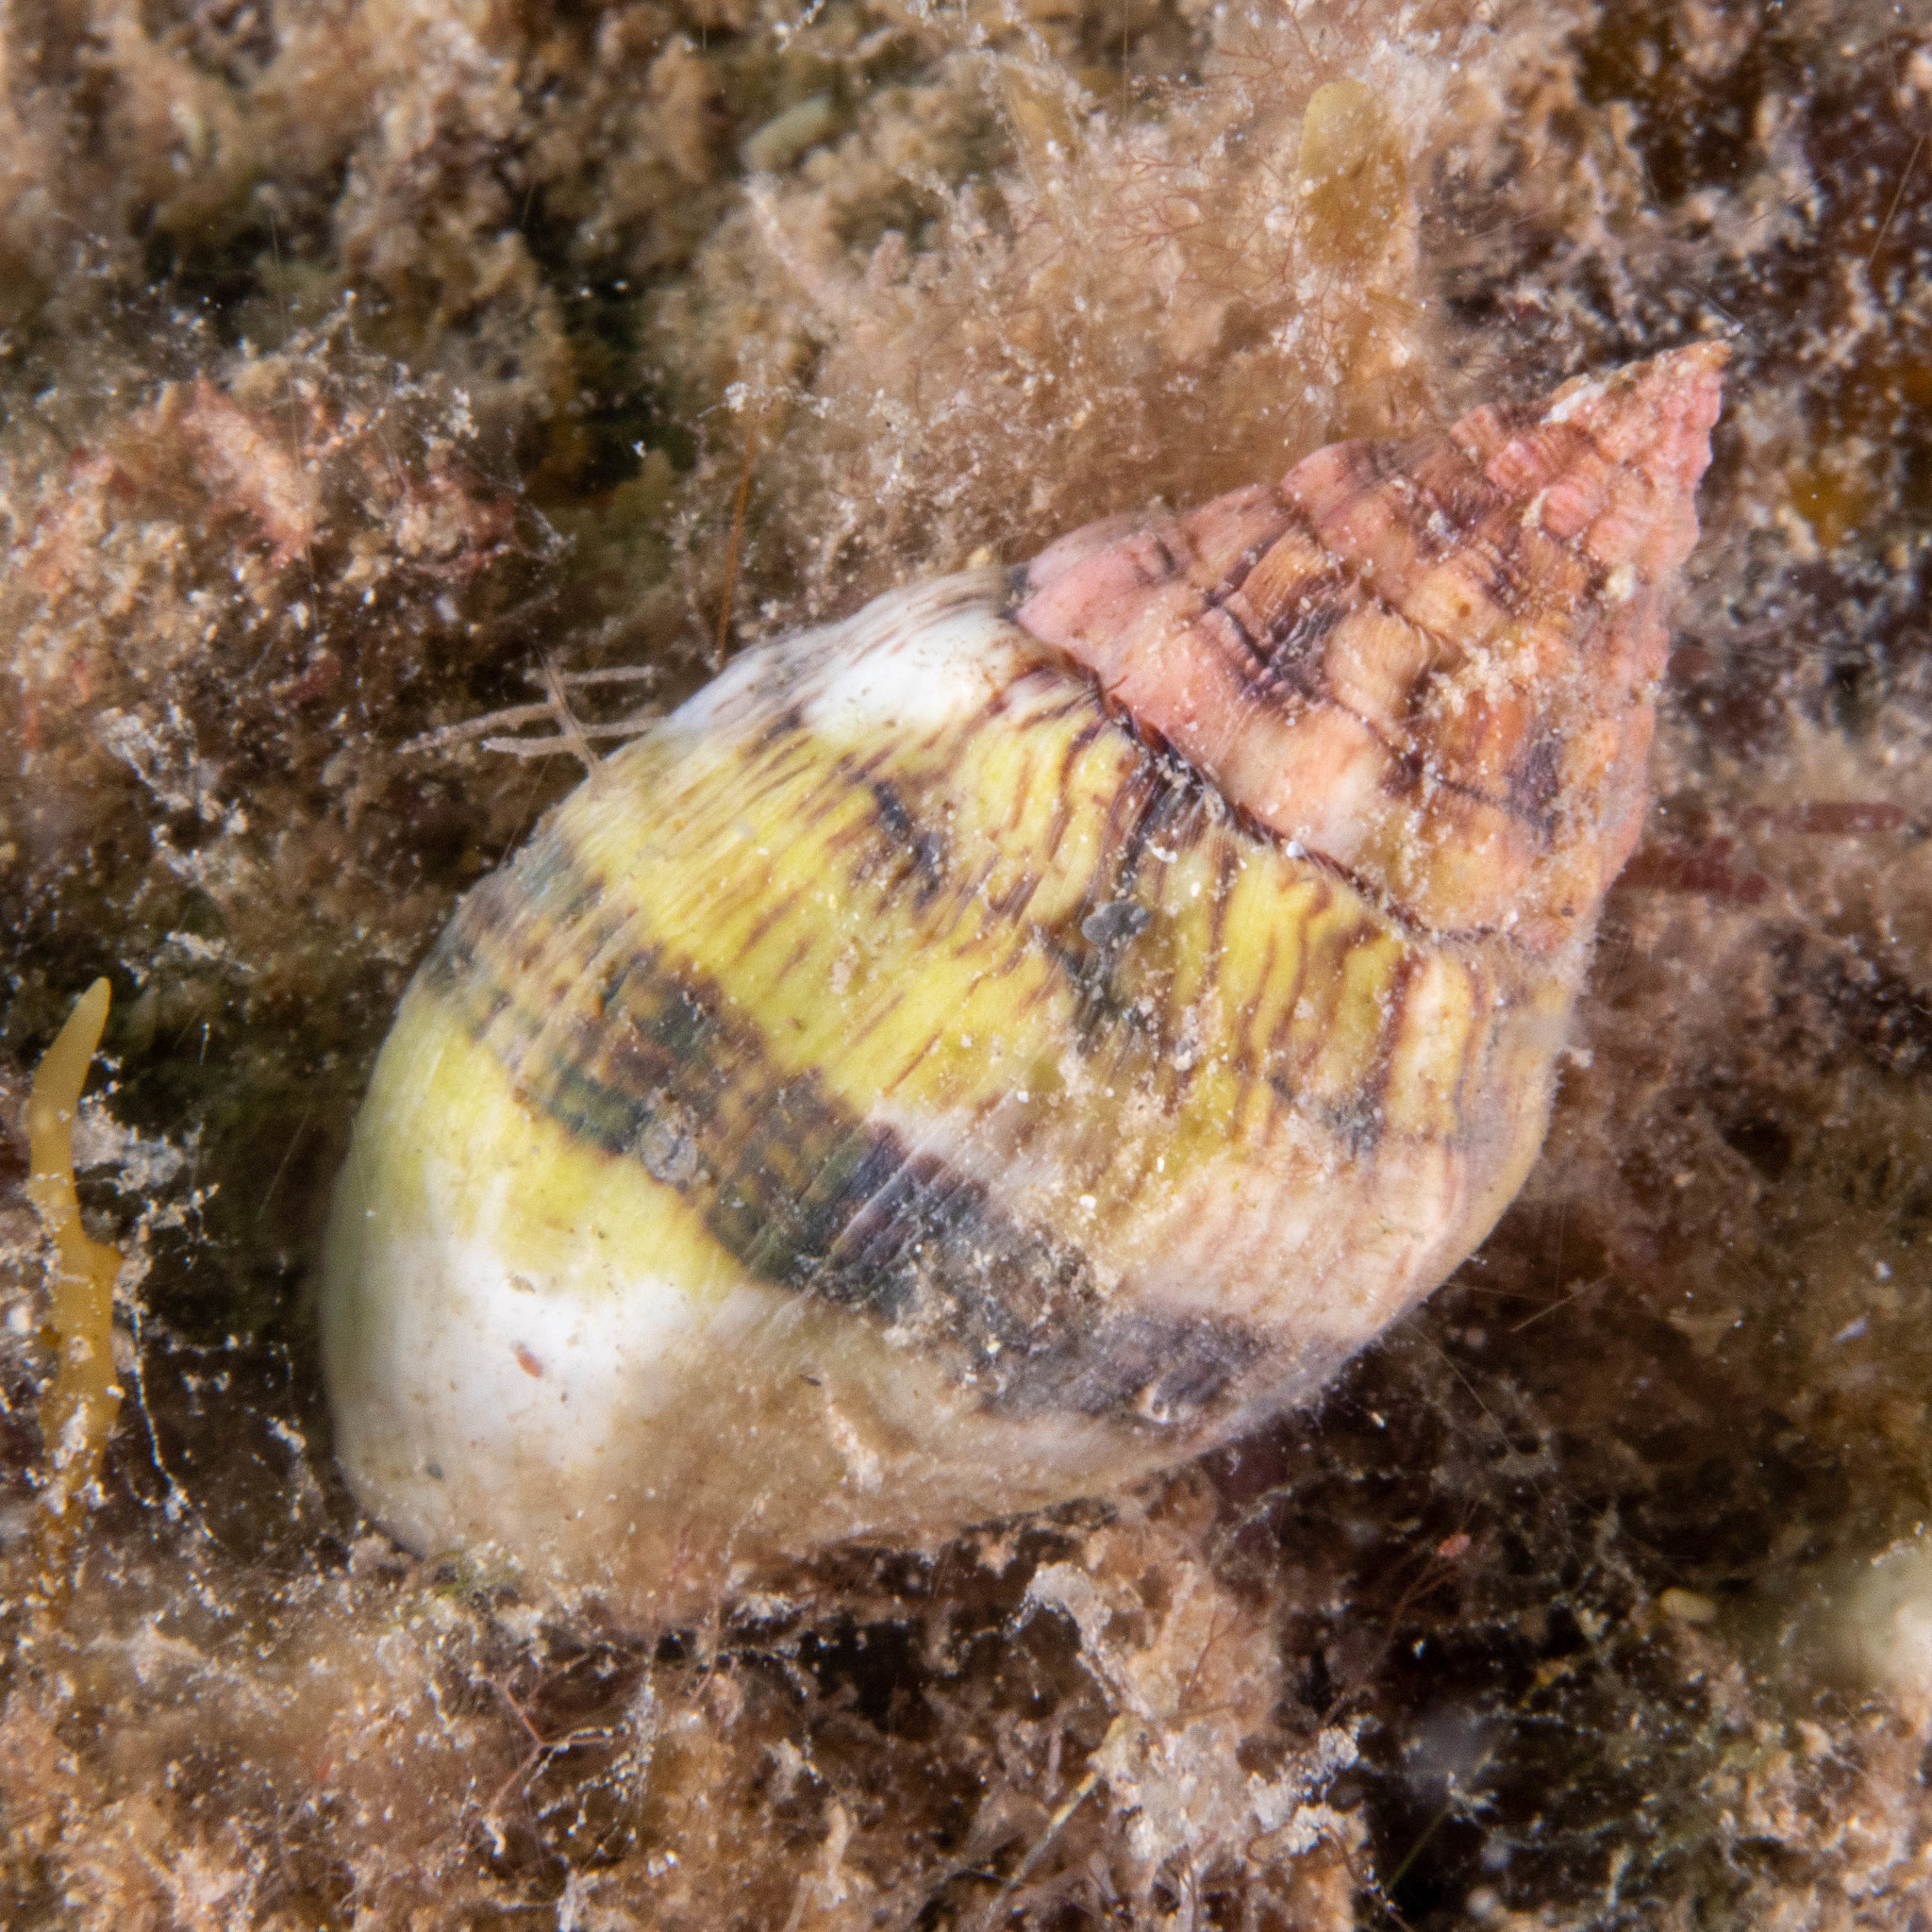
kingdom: Animalia
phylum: Mollusca
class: Gastropoda
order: Neogastropoda
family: Muricidae
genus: Cronia
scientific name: Cronia avellana
